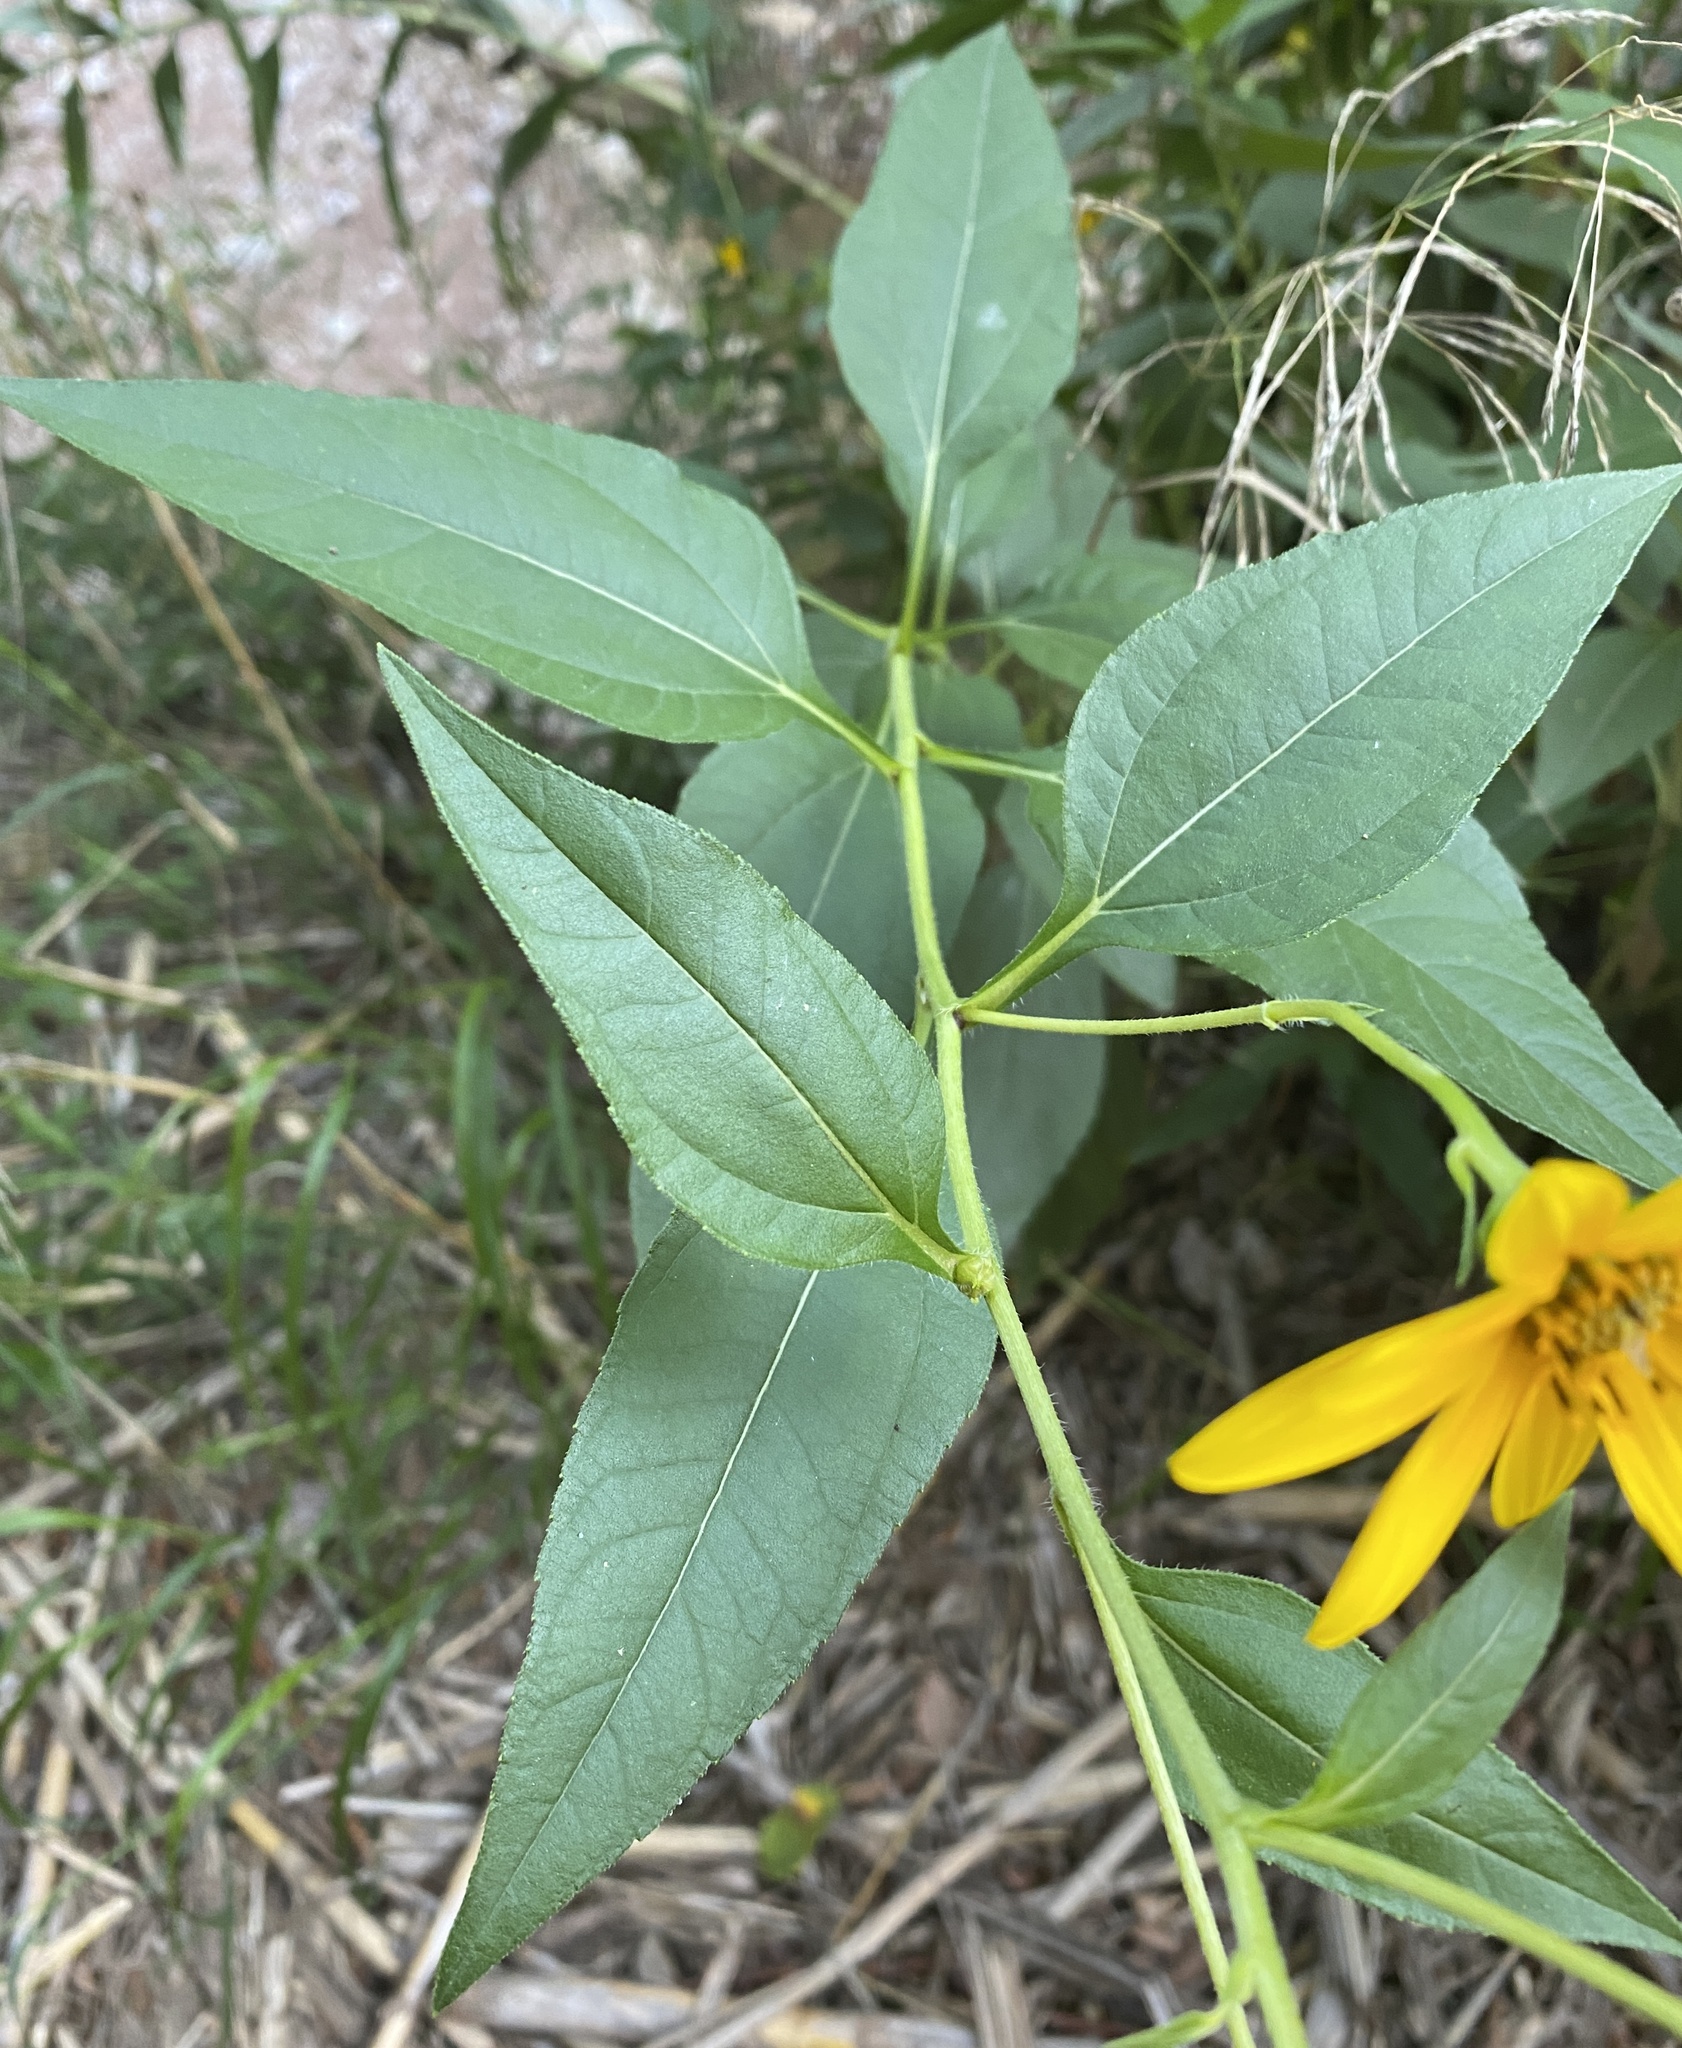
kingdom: Plantae
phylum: Tracheophyta
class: Magnoliopsida
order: Asterales
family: Asteraceae
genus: Helianthus
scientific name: Helianthus tuberosus
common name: Jerusalem artichoke
